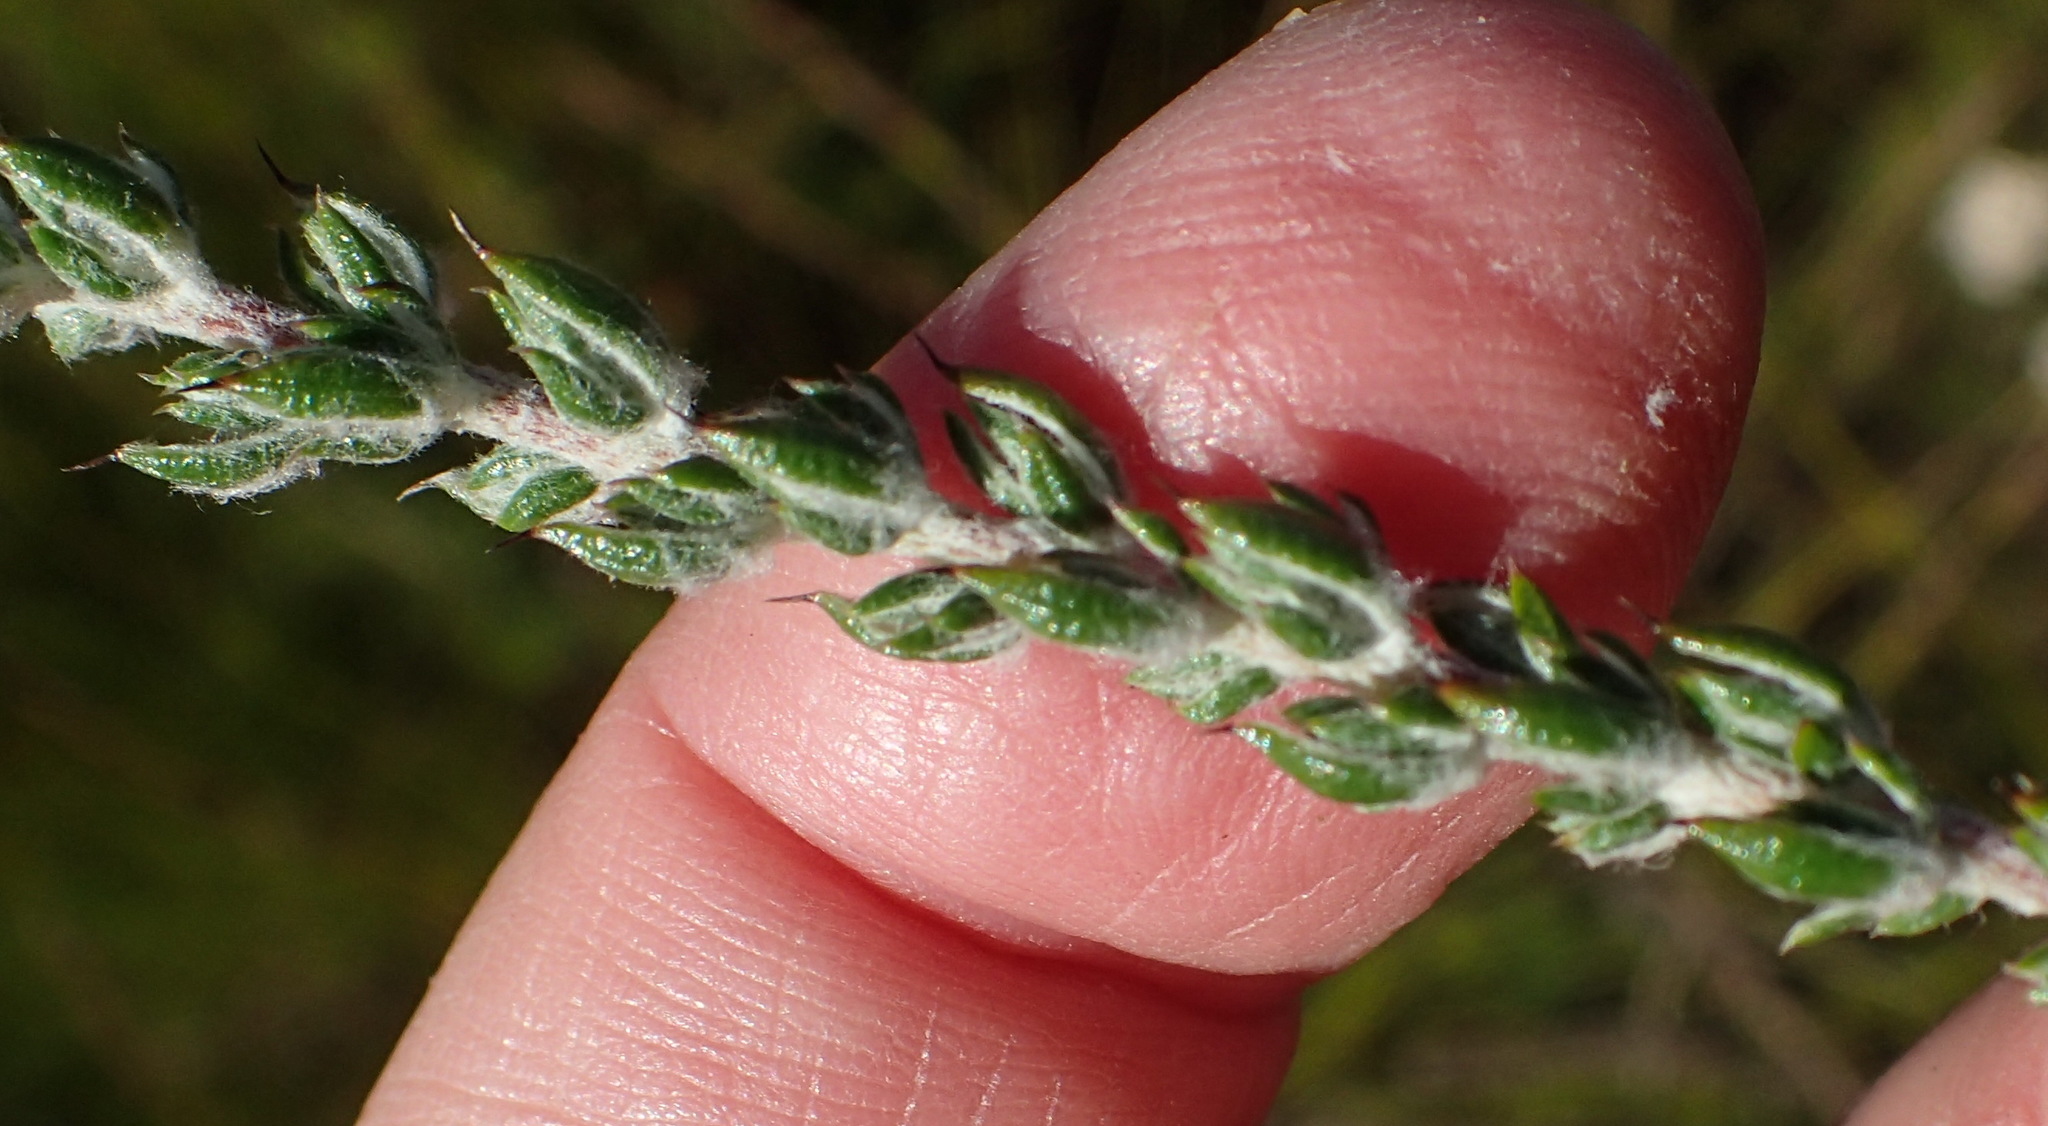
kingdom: Plantae
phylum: Tracheophyta
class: Magnoliopsida
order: Asterales
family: Asteraceae
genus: Metalasia
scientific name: Metalasia pungens
